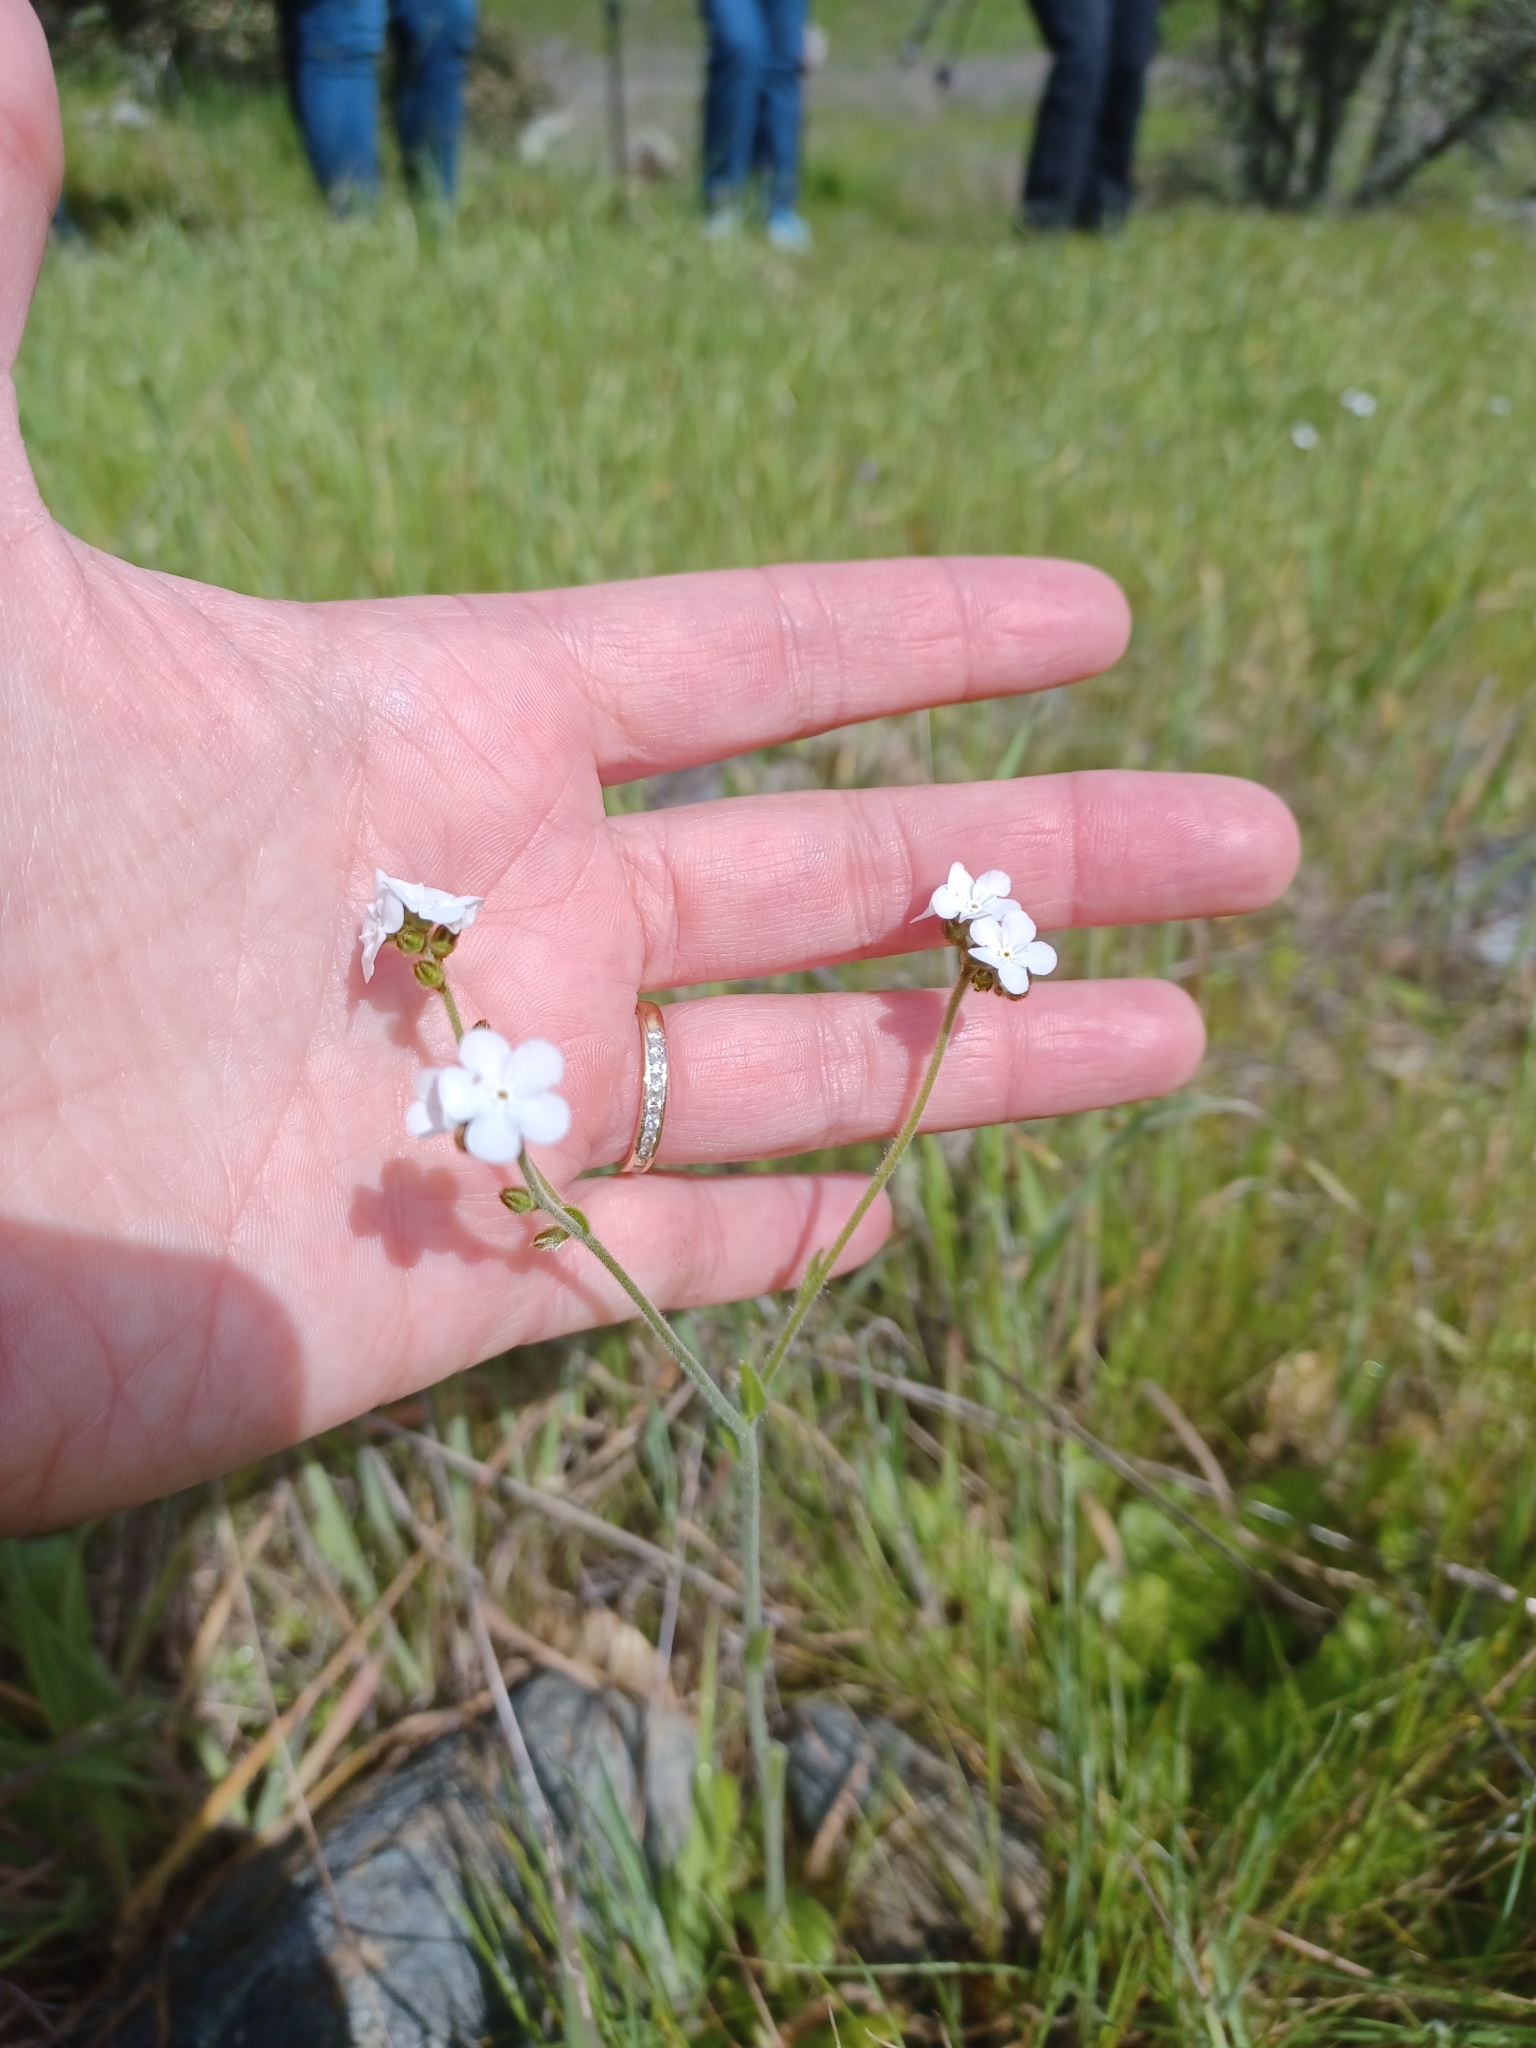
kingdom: Plantae
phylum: Tracheophyta
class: Magnoliopsida
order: Boraginales
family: Boraginaceae
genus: Plagiobothrys
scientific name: Plagiobothrys nothofulvus
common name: Popcorn-flower
